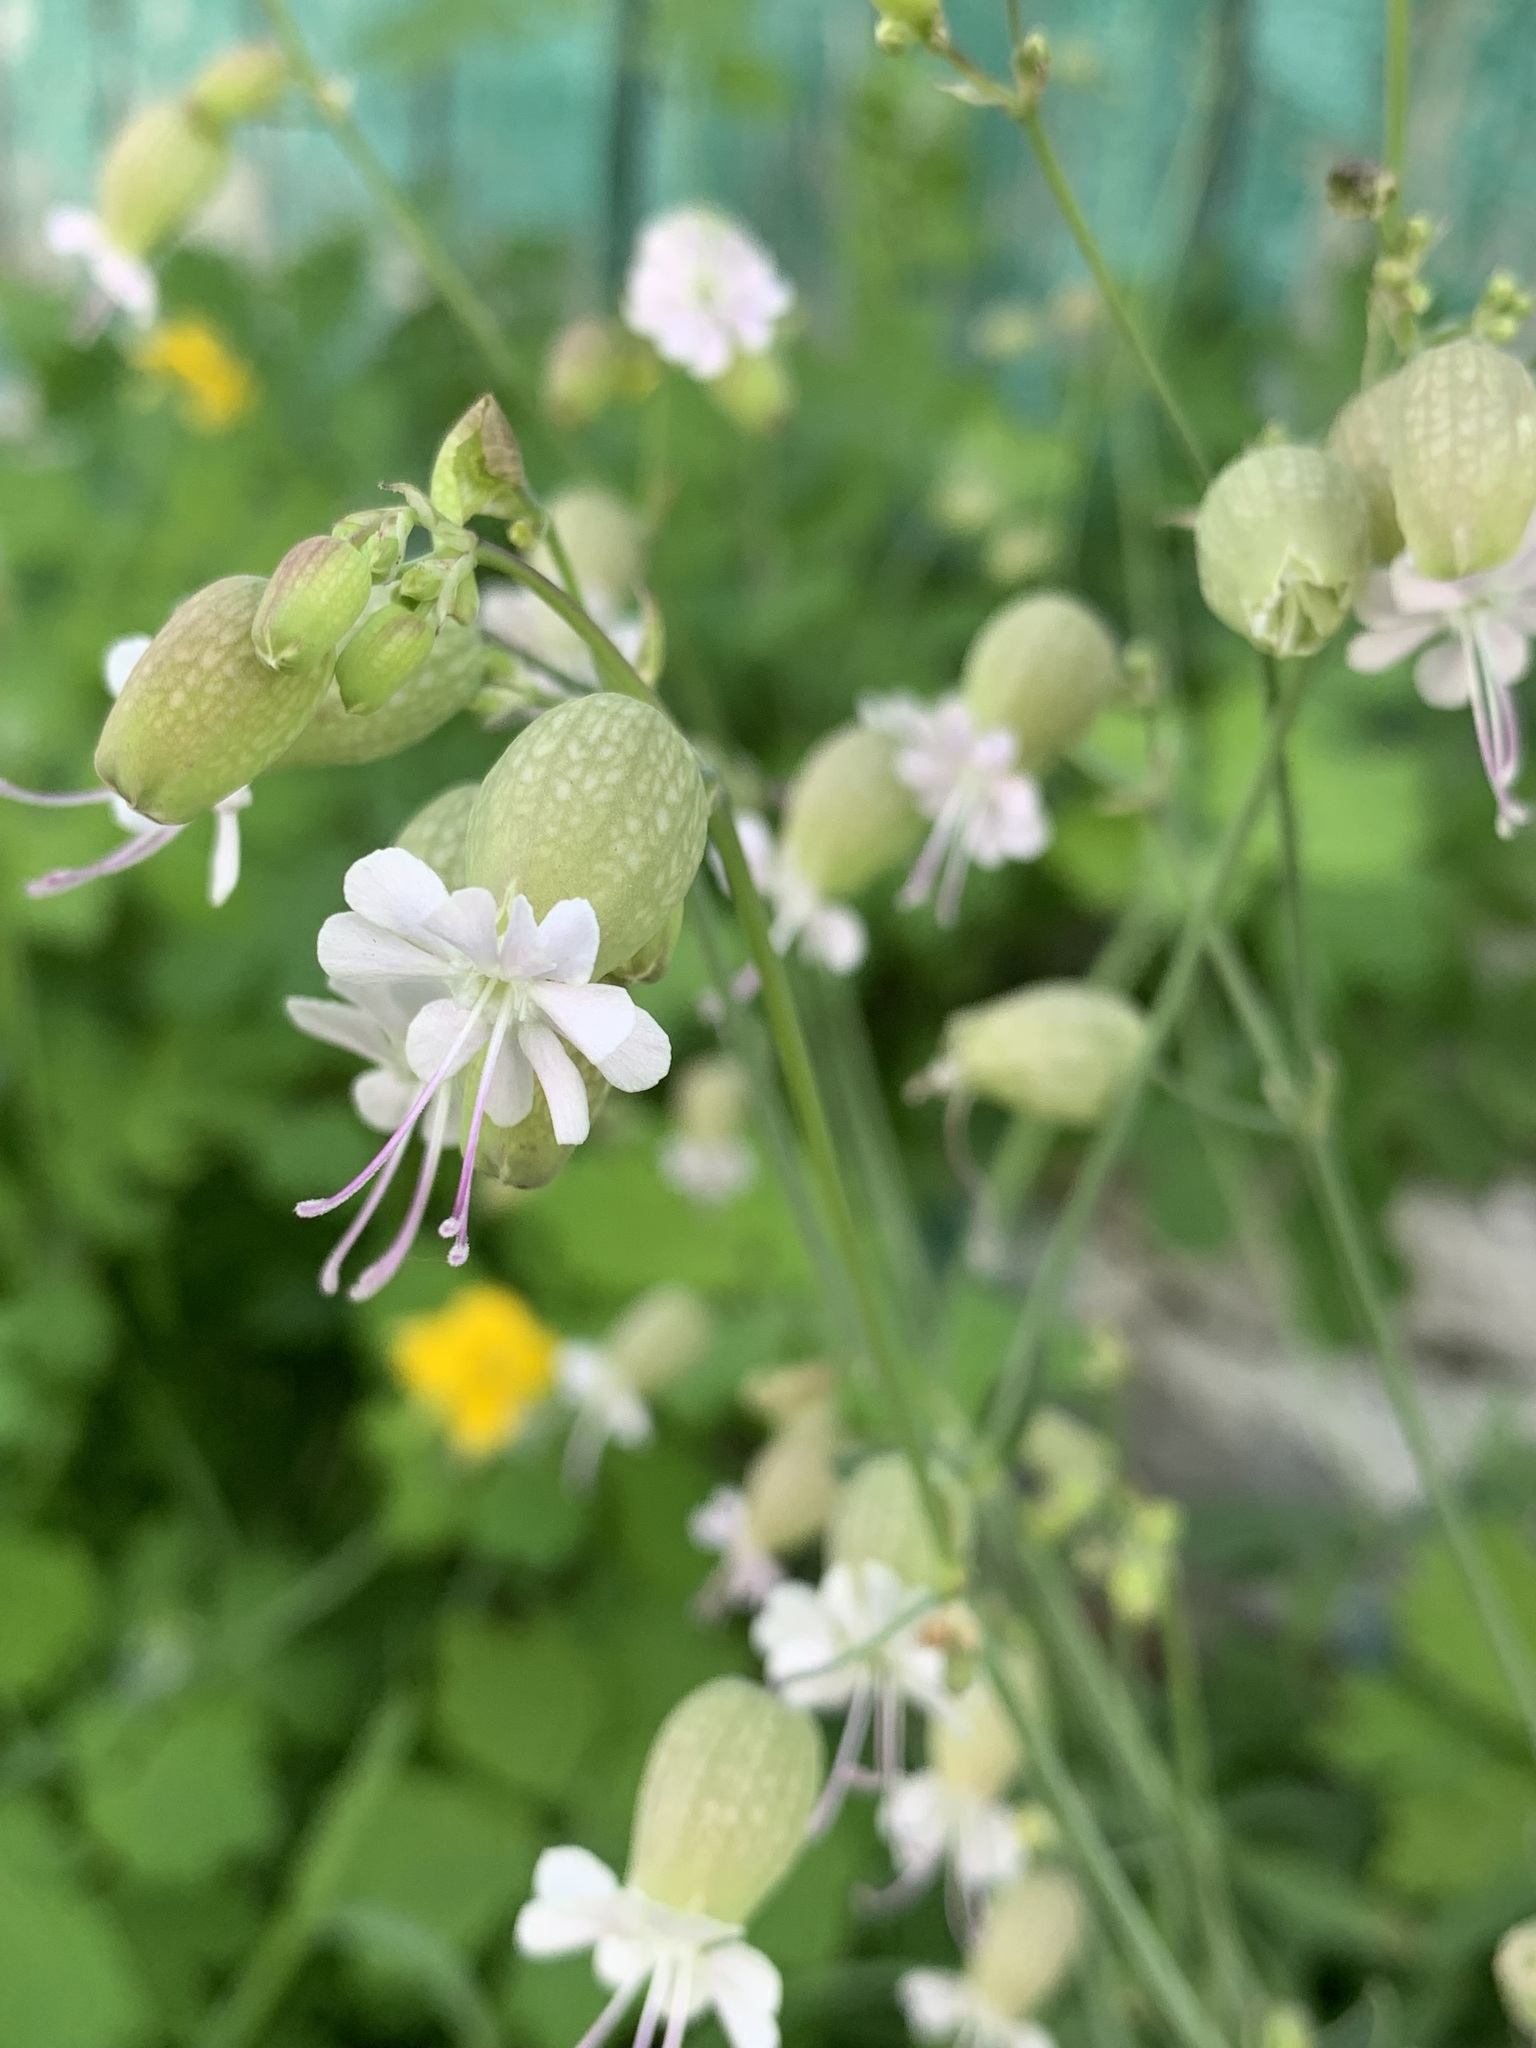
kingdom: Plantae
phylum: Tracheophyta
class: Magnoliopsida
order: Caryophyllales
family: Caryophyllaceae
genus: Silene
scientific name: Silene vulgaris
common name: Bladder campion
